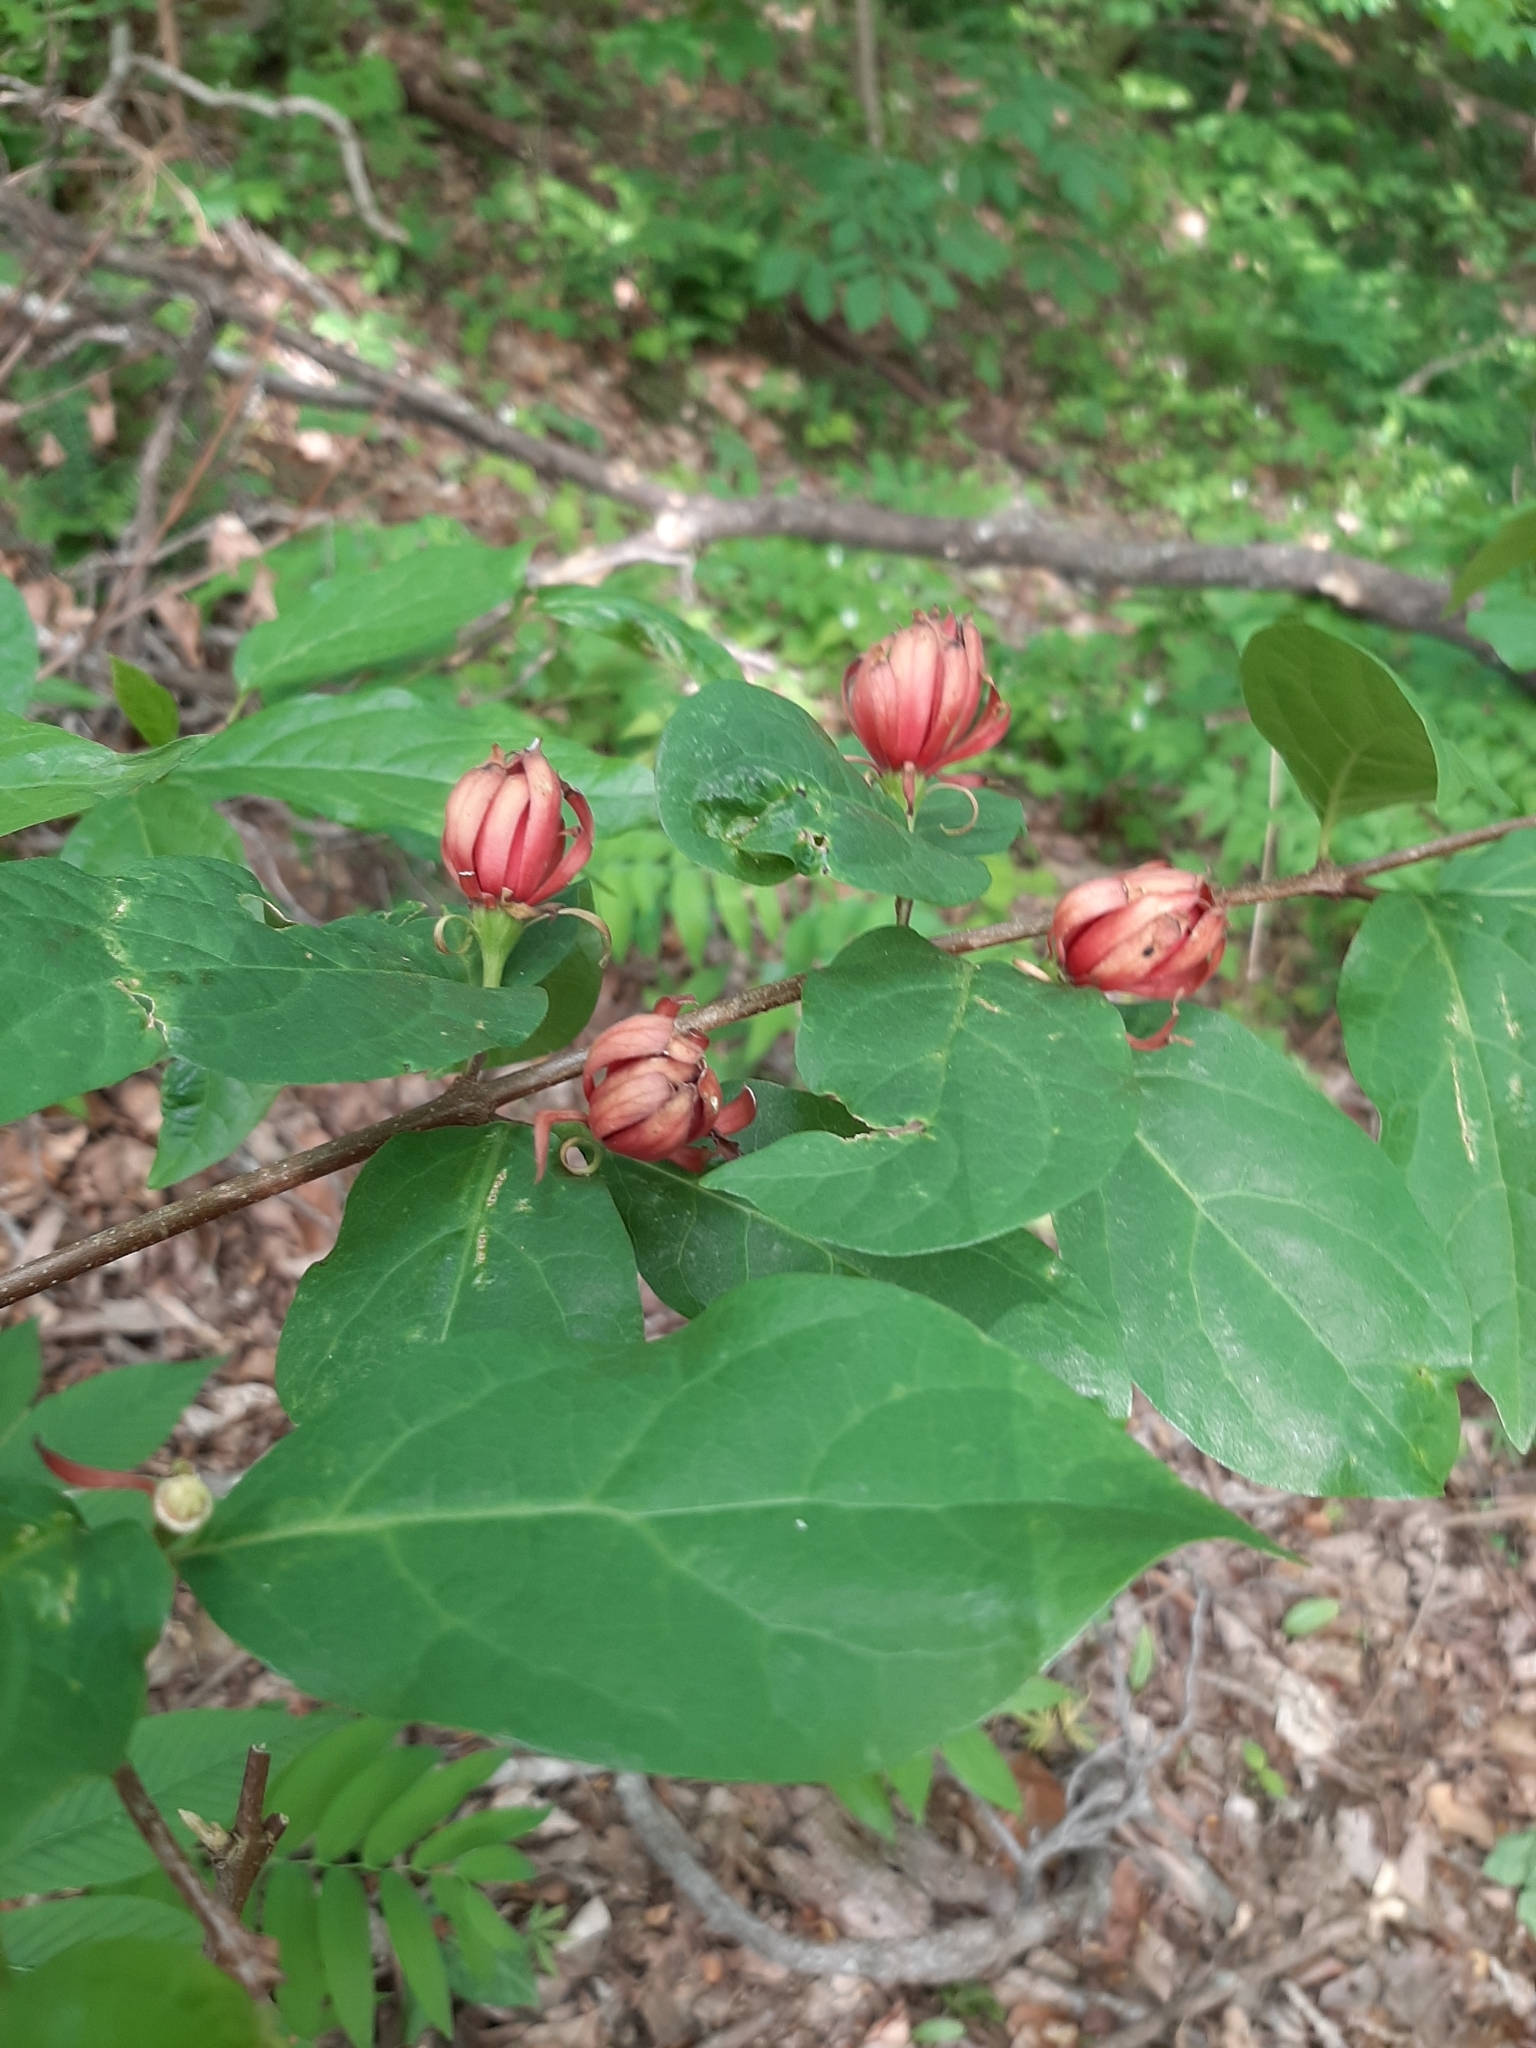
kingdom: Plantae
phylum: Tracheophyta
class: Magnoliopsida
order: Laurales
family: Calycanthaceae
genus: Calycanthus
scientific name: Calycanthus floridus
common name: Carolina-allspice
